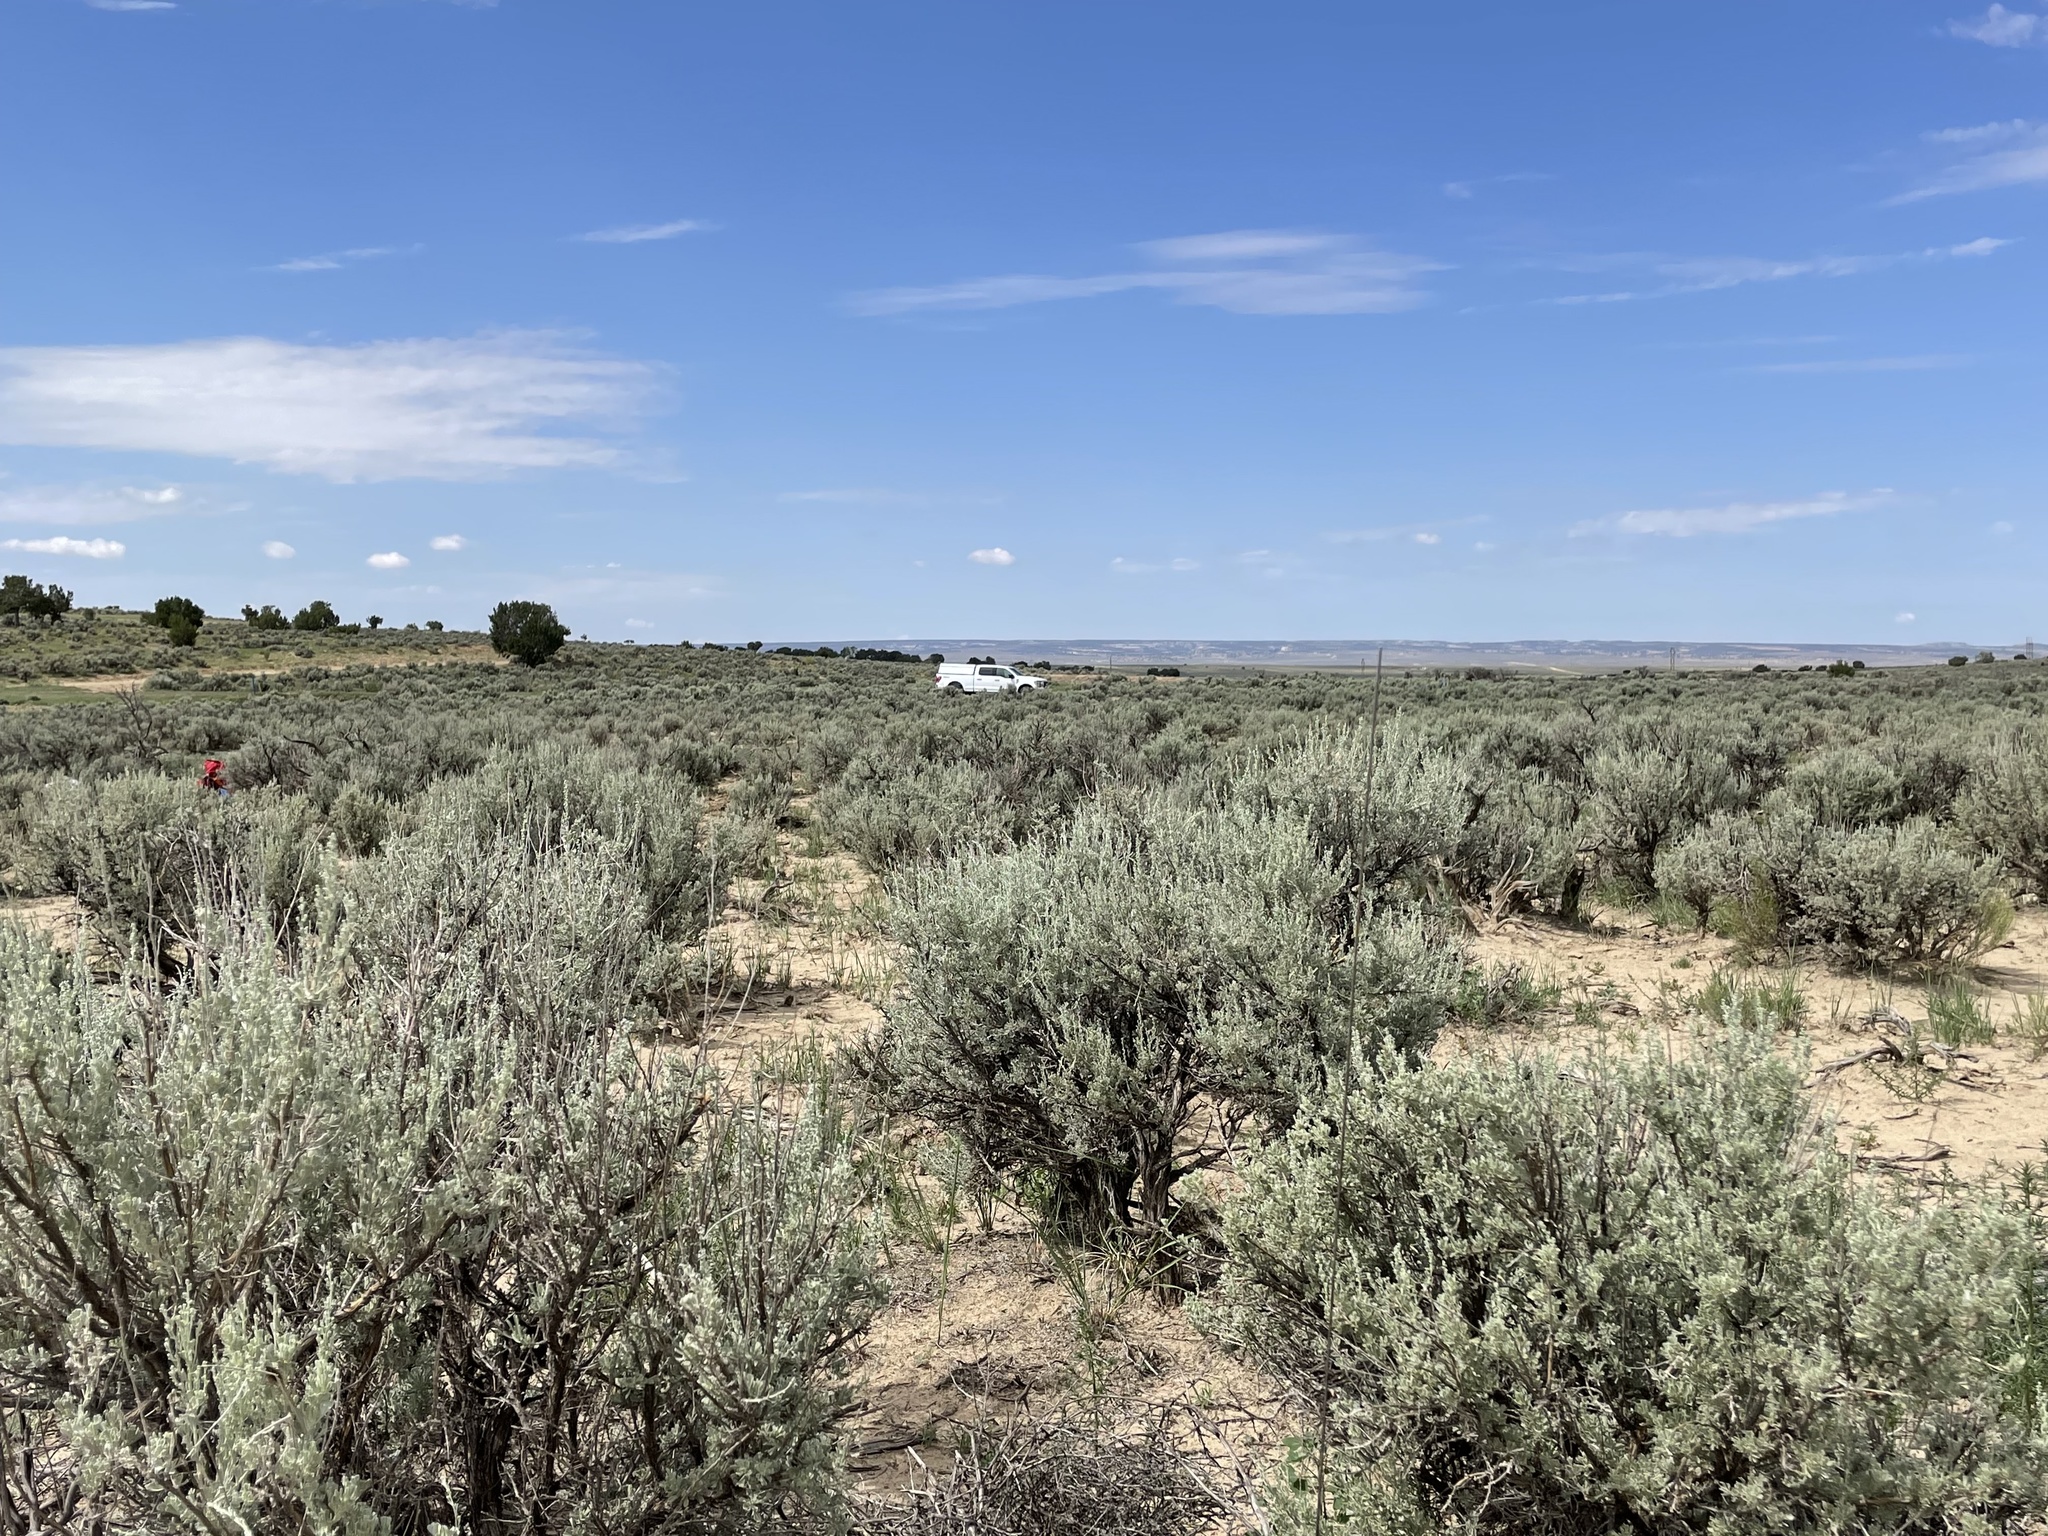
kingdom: Plantae
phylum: Tracheophyta
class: Magnoliopsida
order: Asterales
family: Asteraceae
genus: Artemisia
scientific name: Artemisia tridentata
